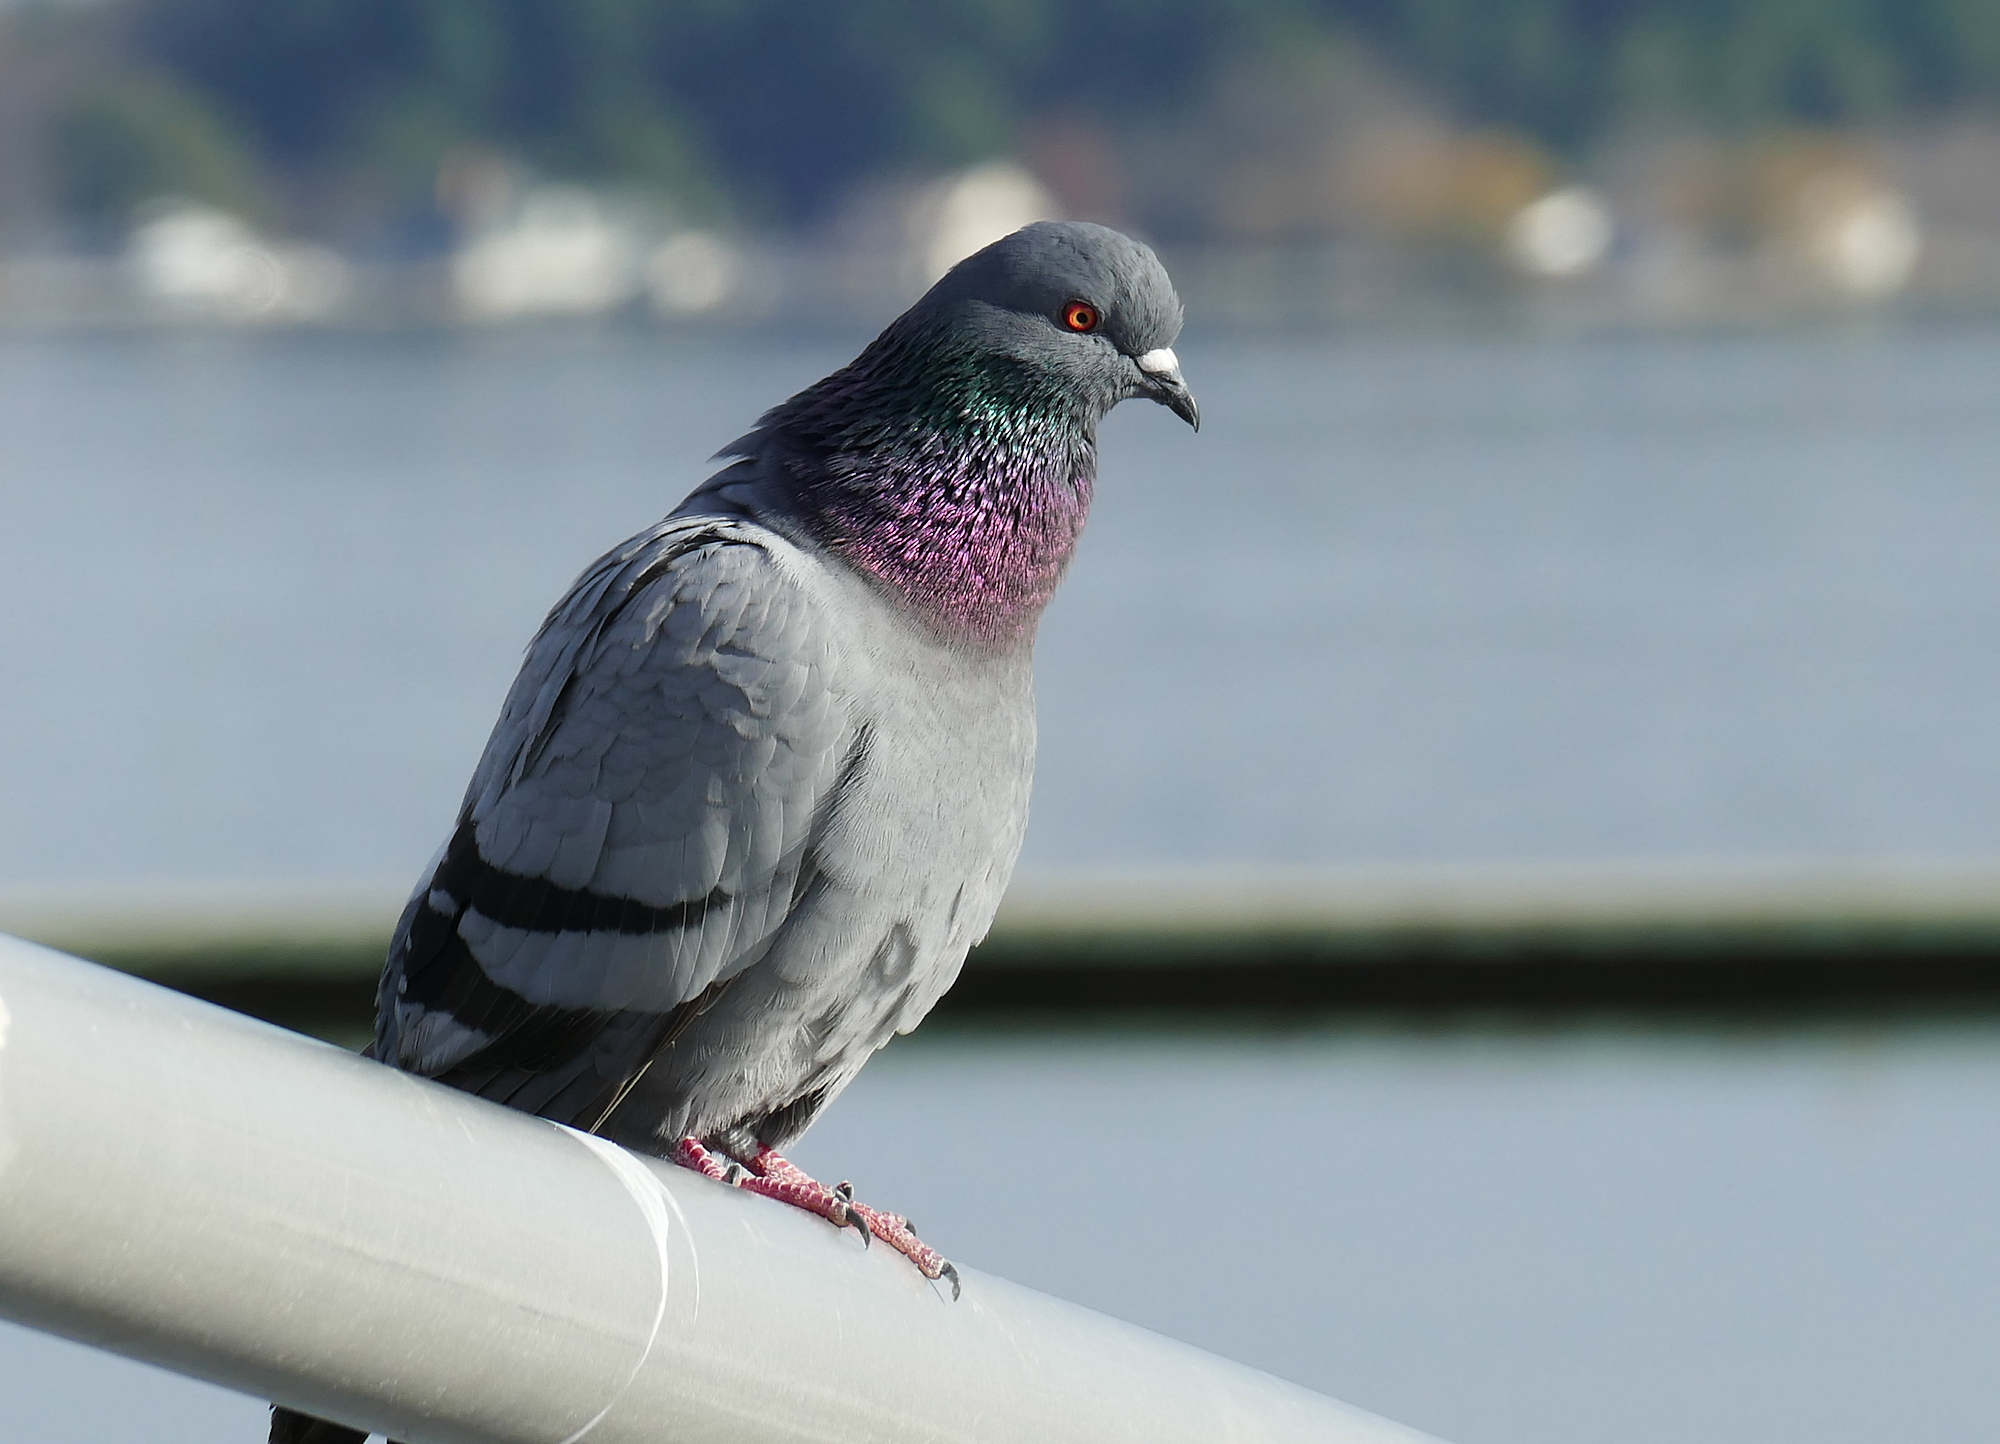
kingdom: Animalia
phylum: Chordata
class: Aves
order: Columbiformes
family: Columbidae
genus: Columba
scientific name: Columba livia
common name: Rock pigeon
